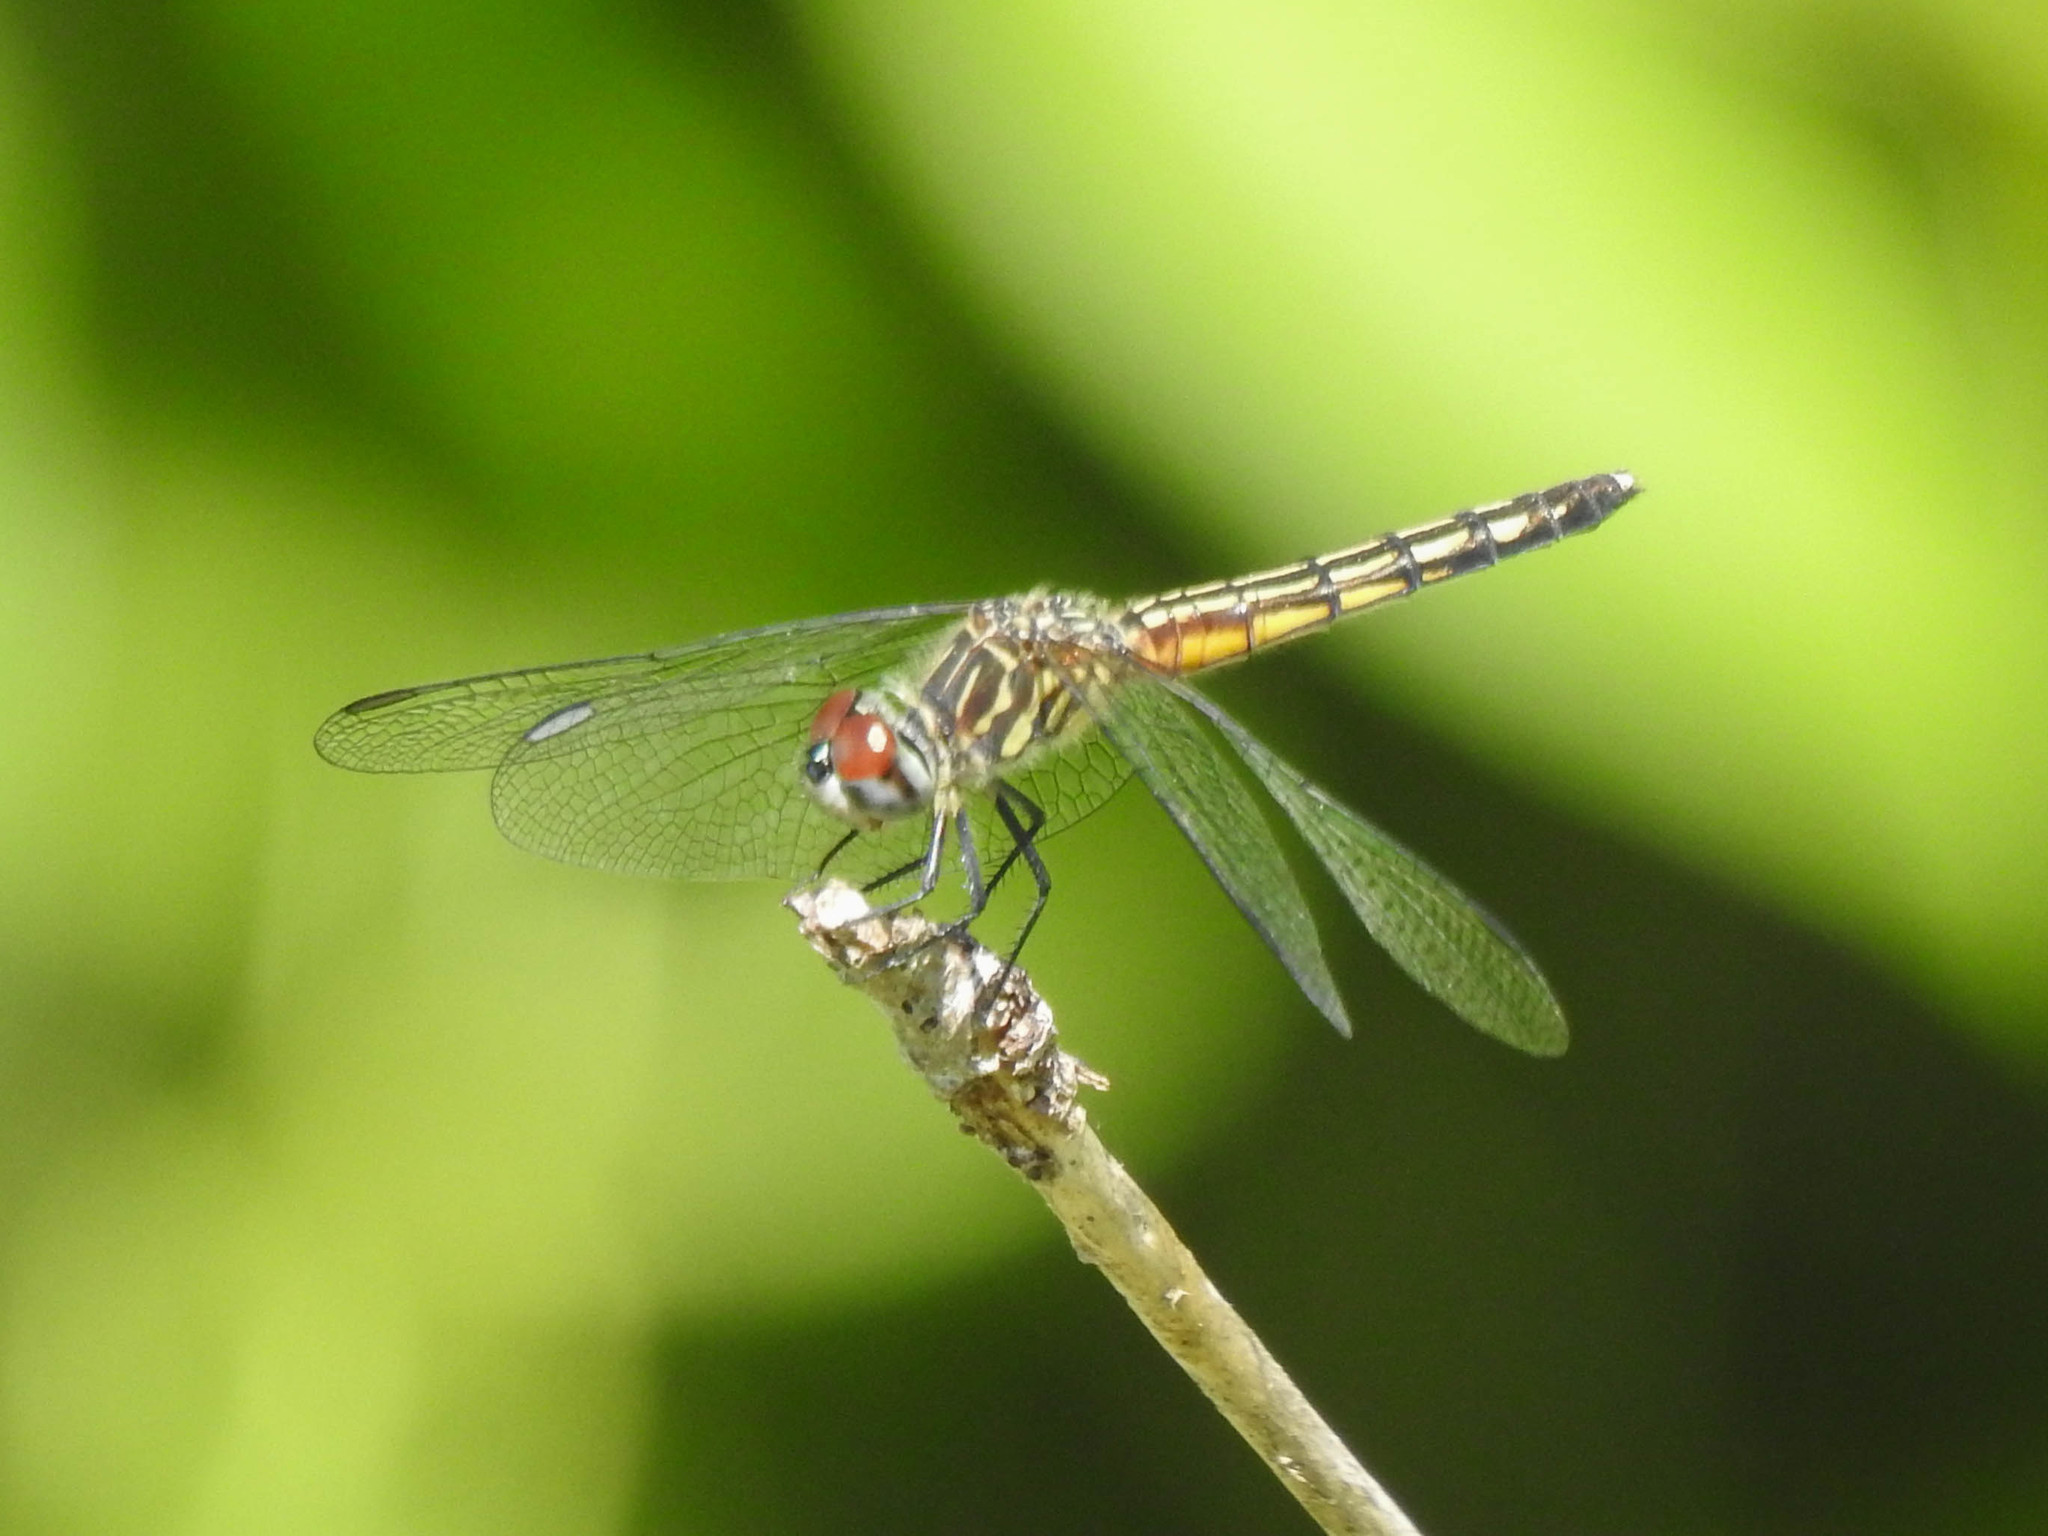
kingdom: Animalia
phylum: Arthropoda
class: Insecta
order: Odonata
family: Libellulidae
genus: Pachydiplax
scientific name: Pachydiplax longipennis
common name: Blue dasher
